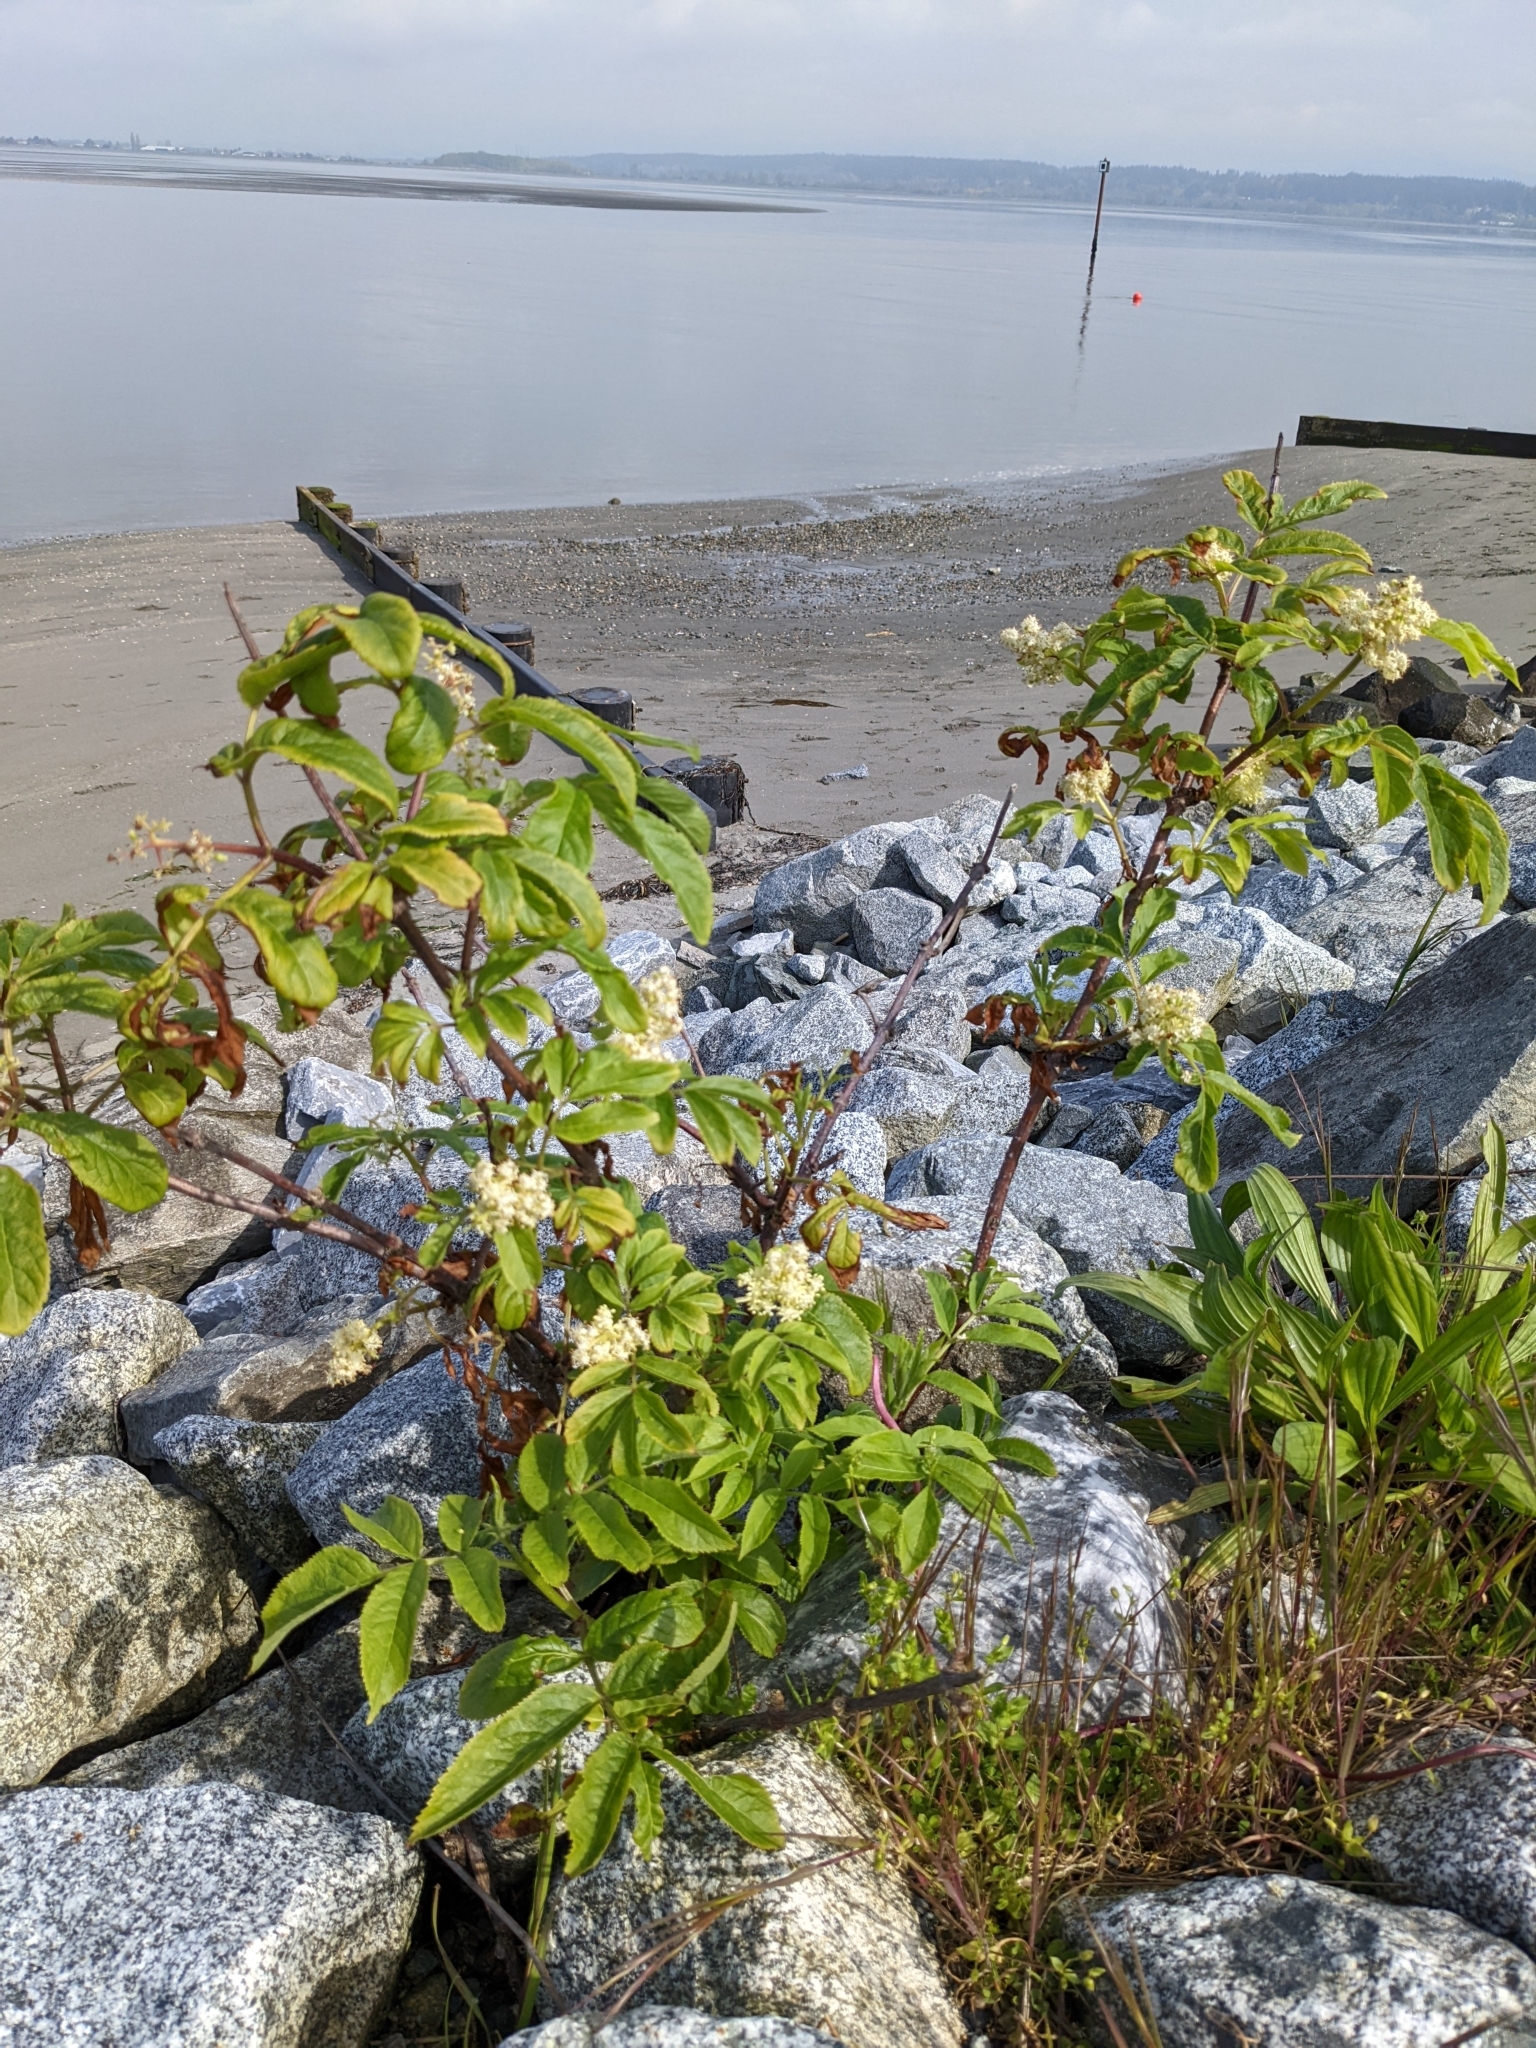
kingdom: Plantae
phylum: Tracheophyta
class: Magnoliopsida
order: Dipsacales
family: Viburnaceae
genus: Sambucus
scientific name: Sambucus racemosa
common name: Red-berried elder
